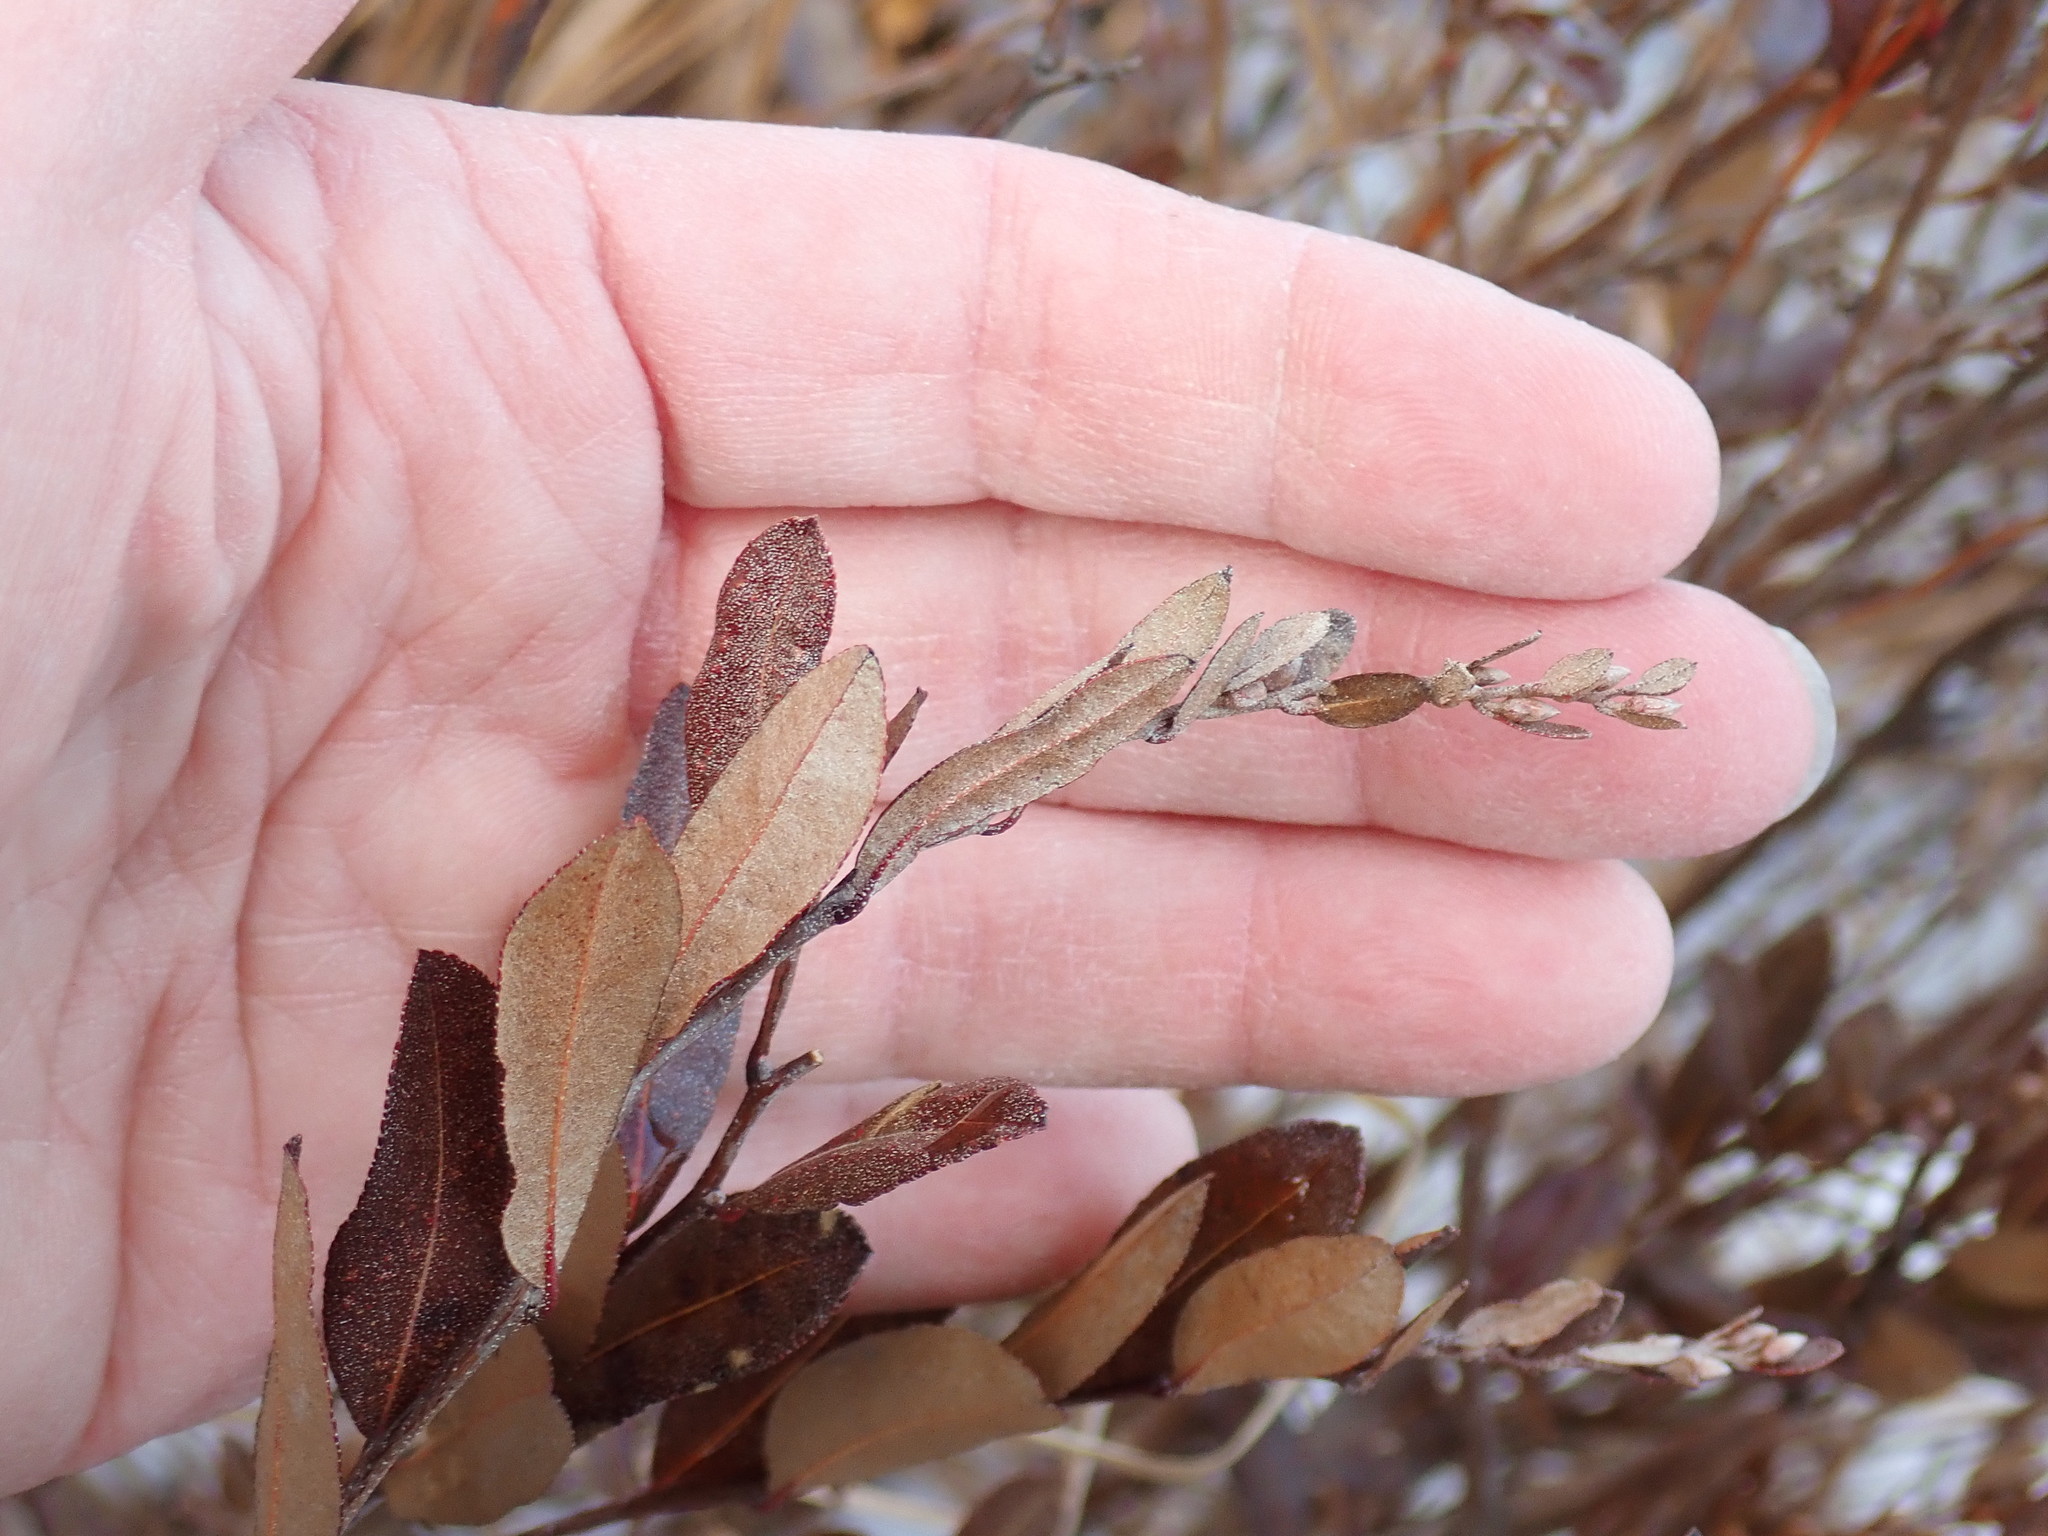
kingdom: Plantae
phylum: Tracheophyta
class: Magnoliopsida
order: Ericales
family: Ericaceae
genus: Chamaedaphne
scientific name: Chamaedaphne calyculata
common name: Leatherleaf
